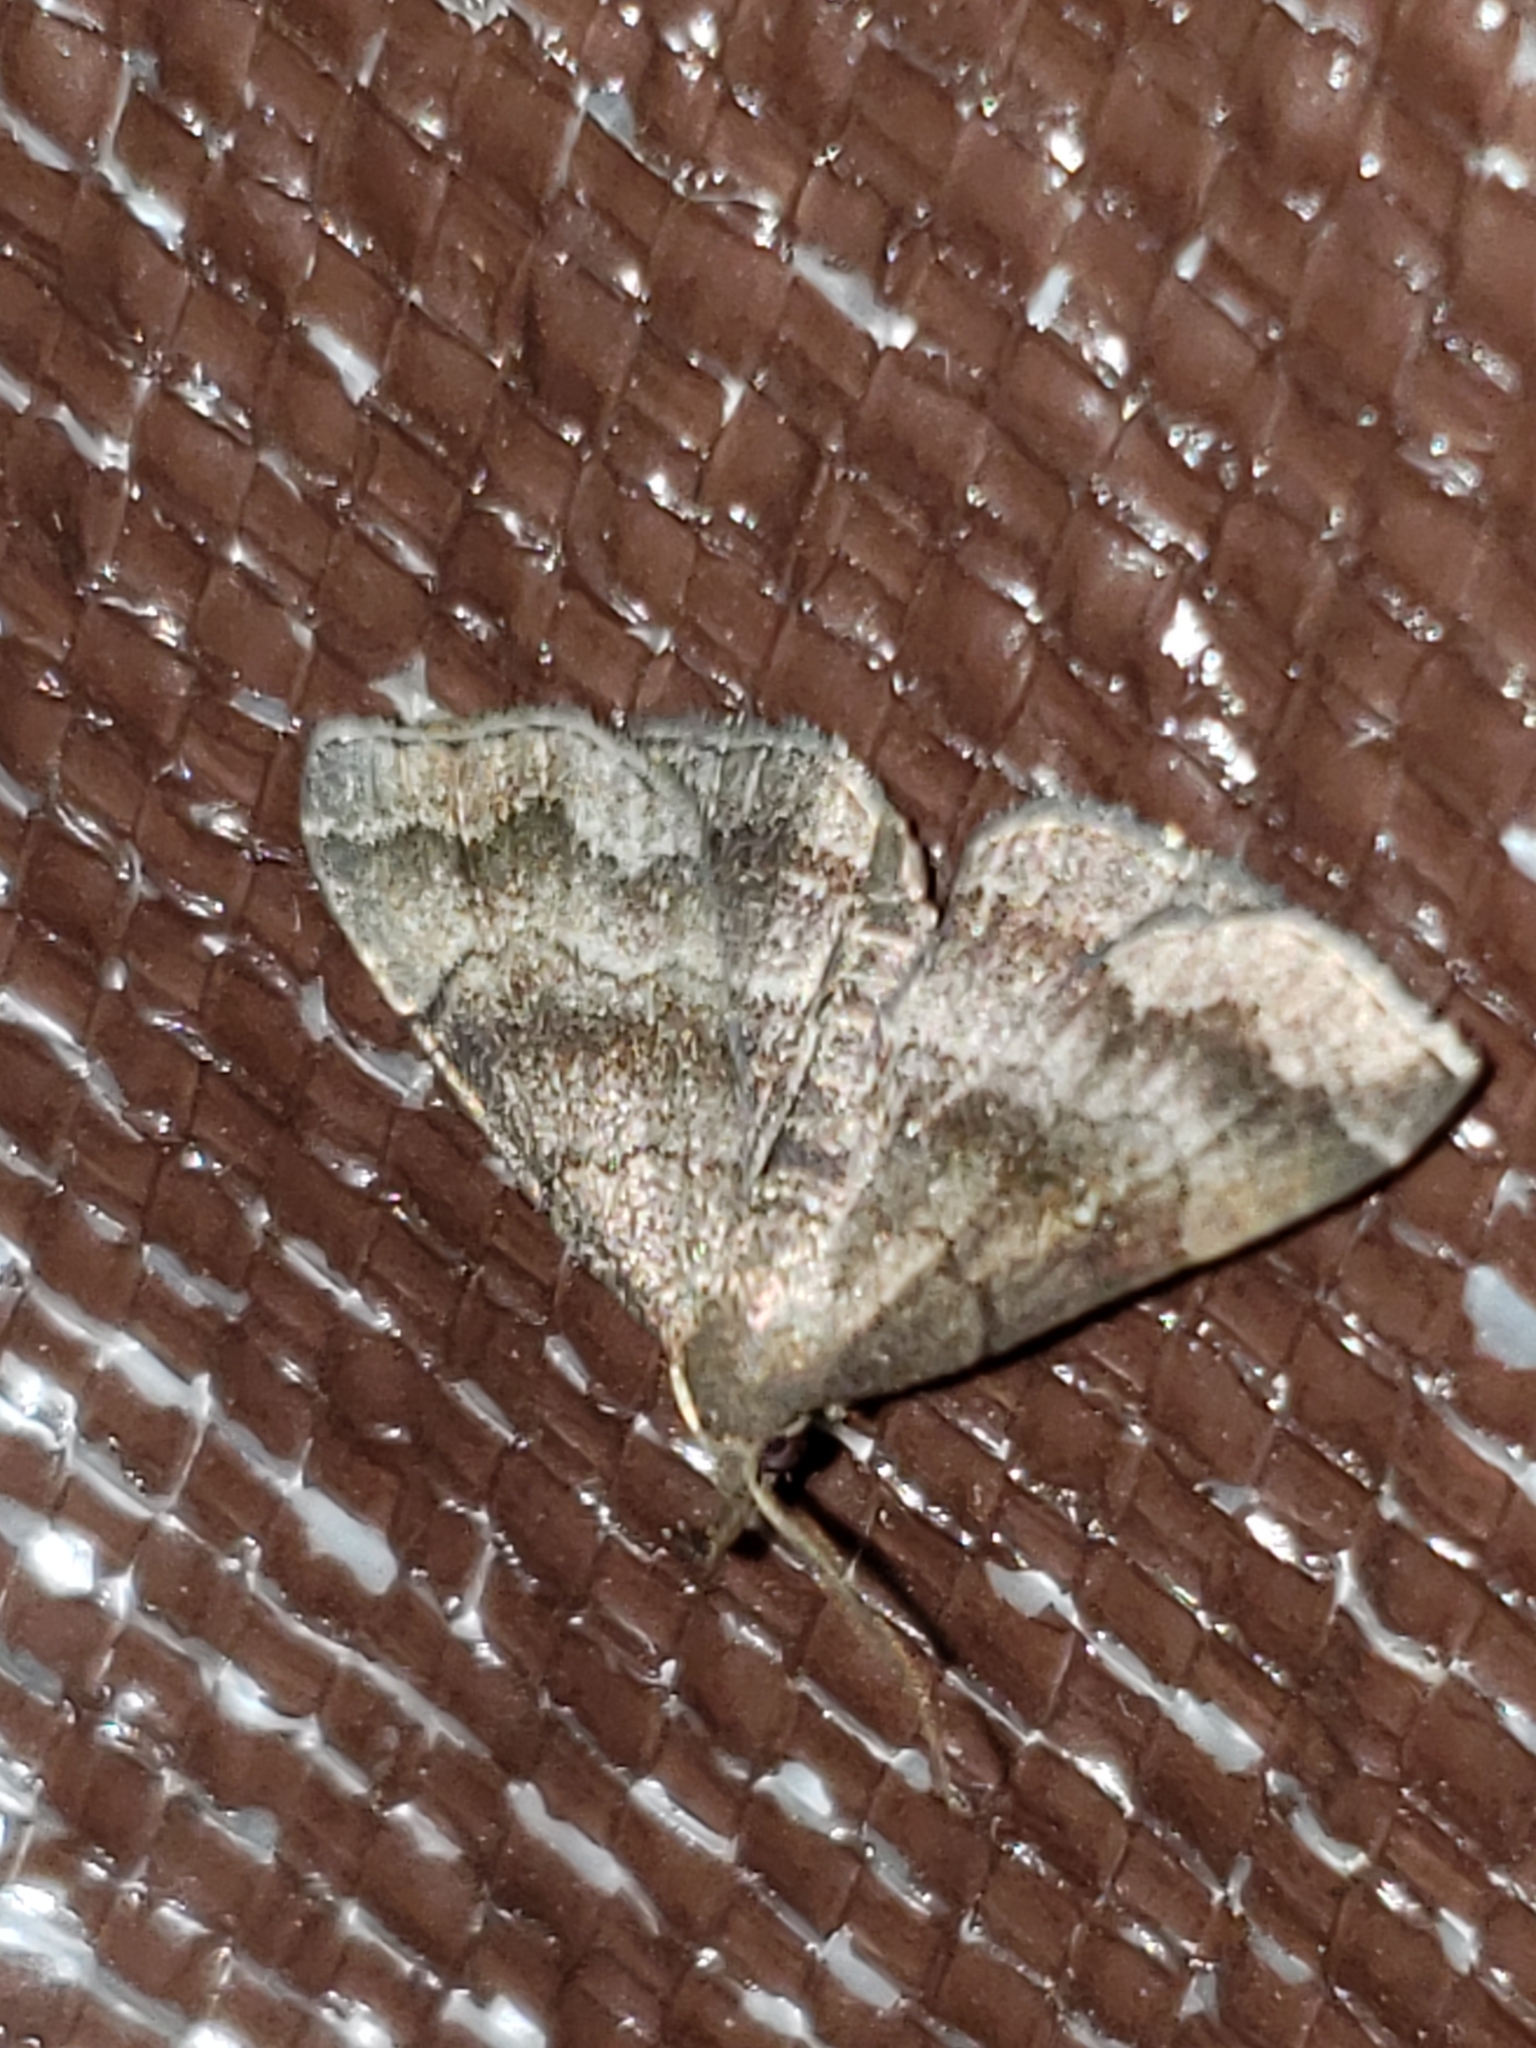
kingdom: Animalia
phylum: Arthropoda
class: Insecta
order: Lepidoptera
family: Erebidae
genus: Phalaenostola
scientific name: Phalaenostola larentioides
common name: Black-banded owlet
